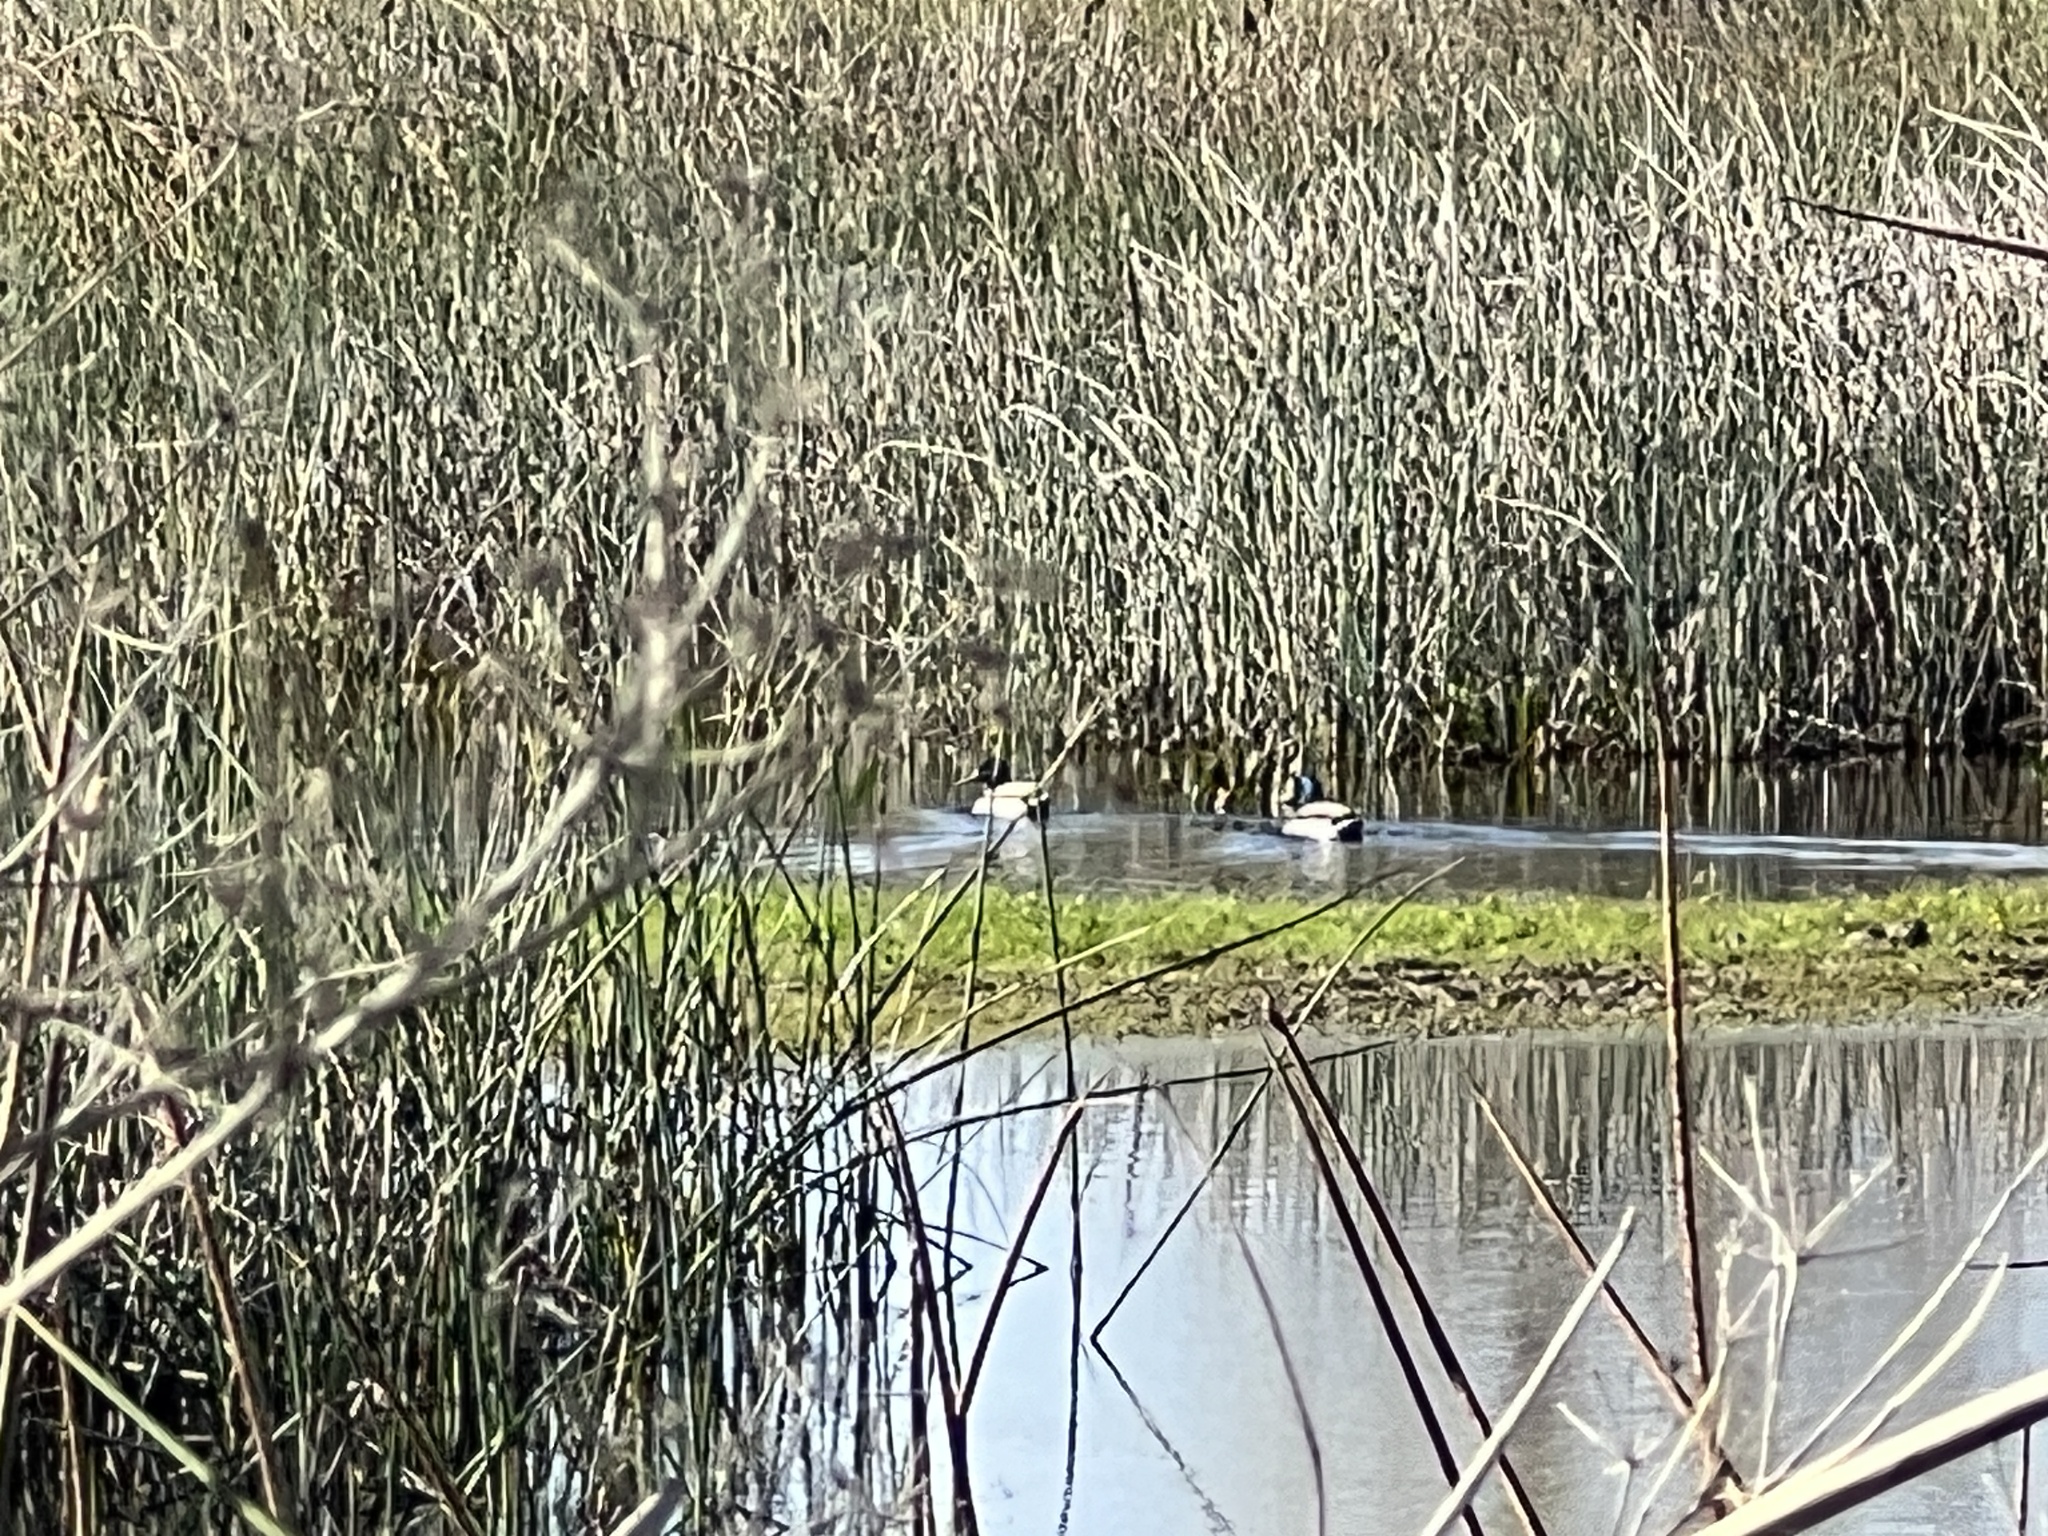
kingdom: Animalia
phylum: Chordata
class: Aves
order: Anseriformes
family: Anatidae
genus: Anas
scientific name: Anas platyrhynchos
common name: Mallard
